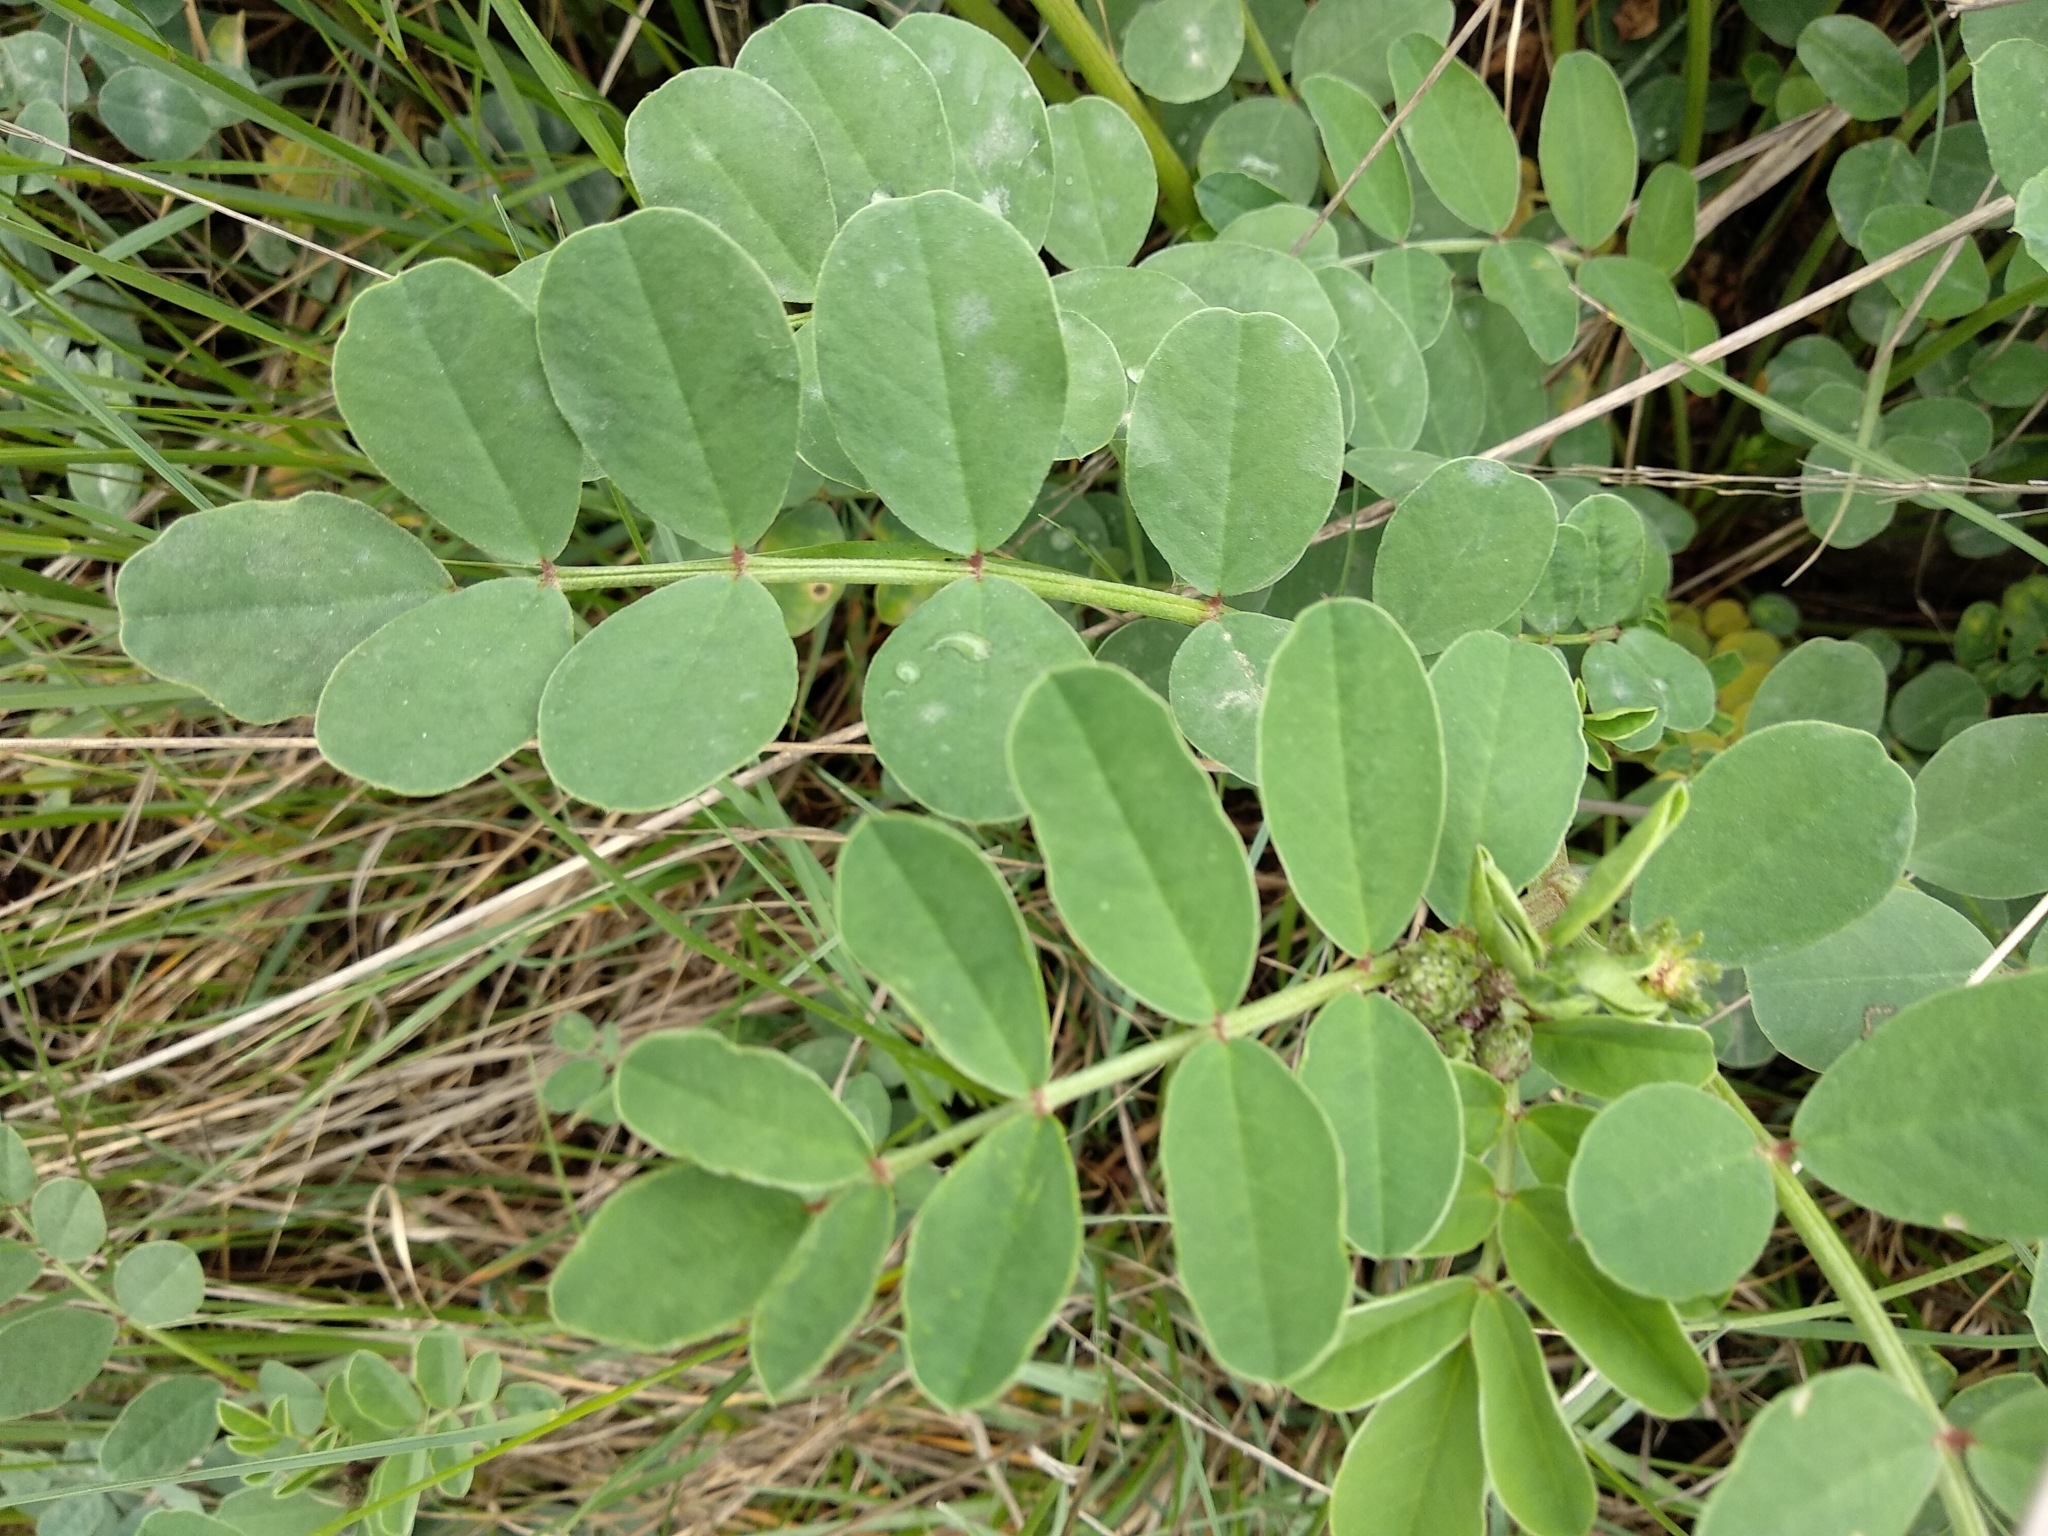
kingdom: Plantae
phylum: Tracheophyta
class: Magnoliopsida
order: Fabales
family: Fabaceae
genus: Sulla
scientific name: Sulla coronaria
